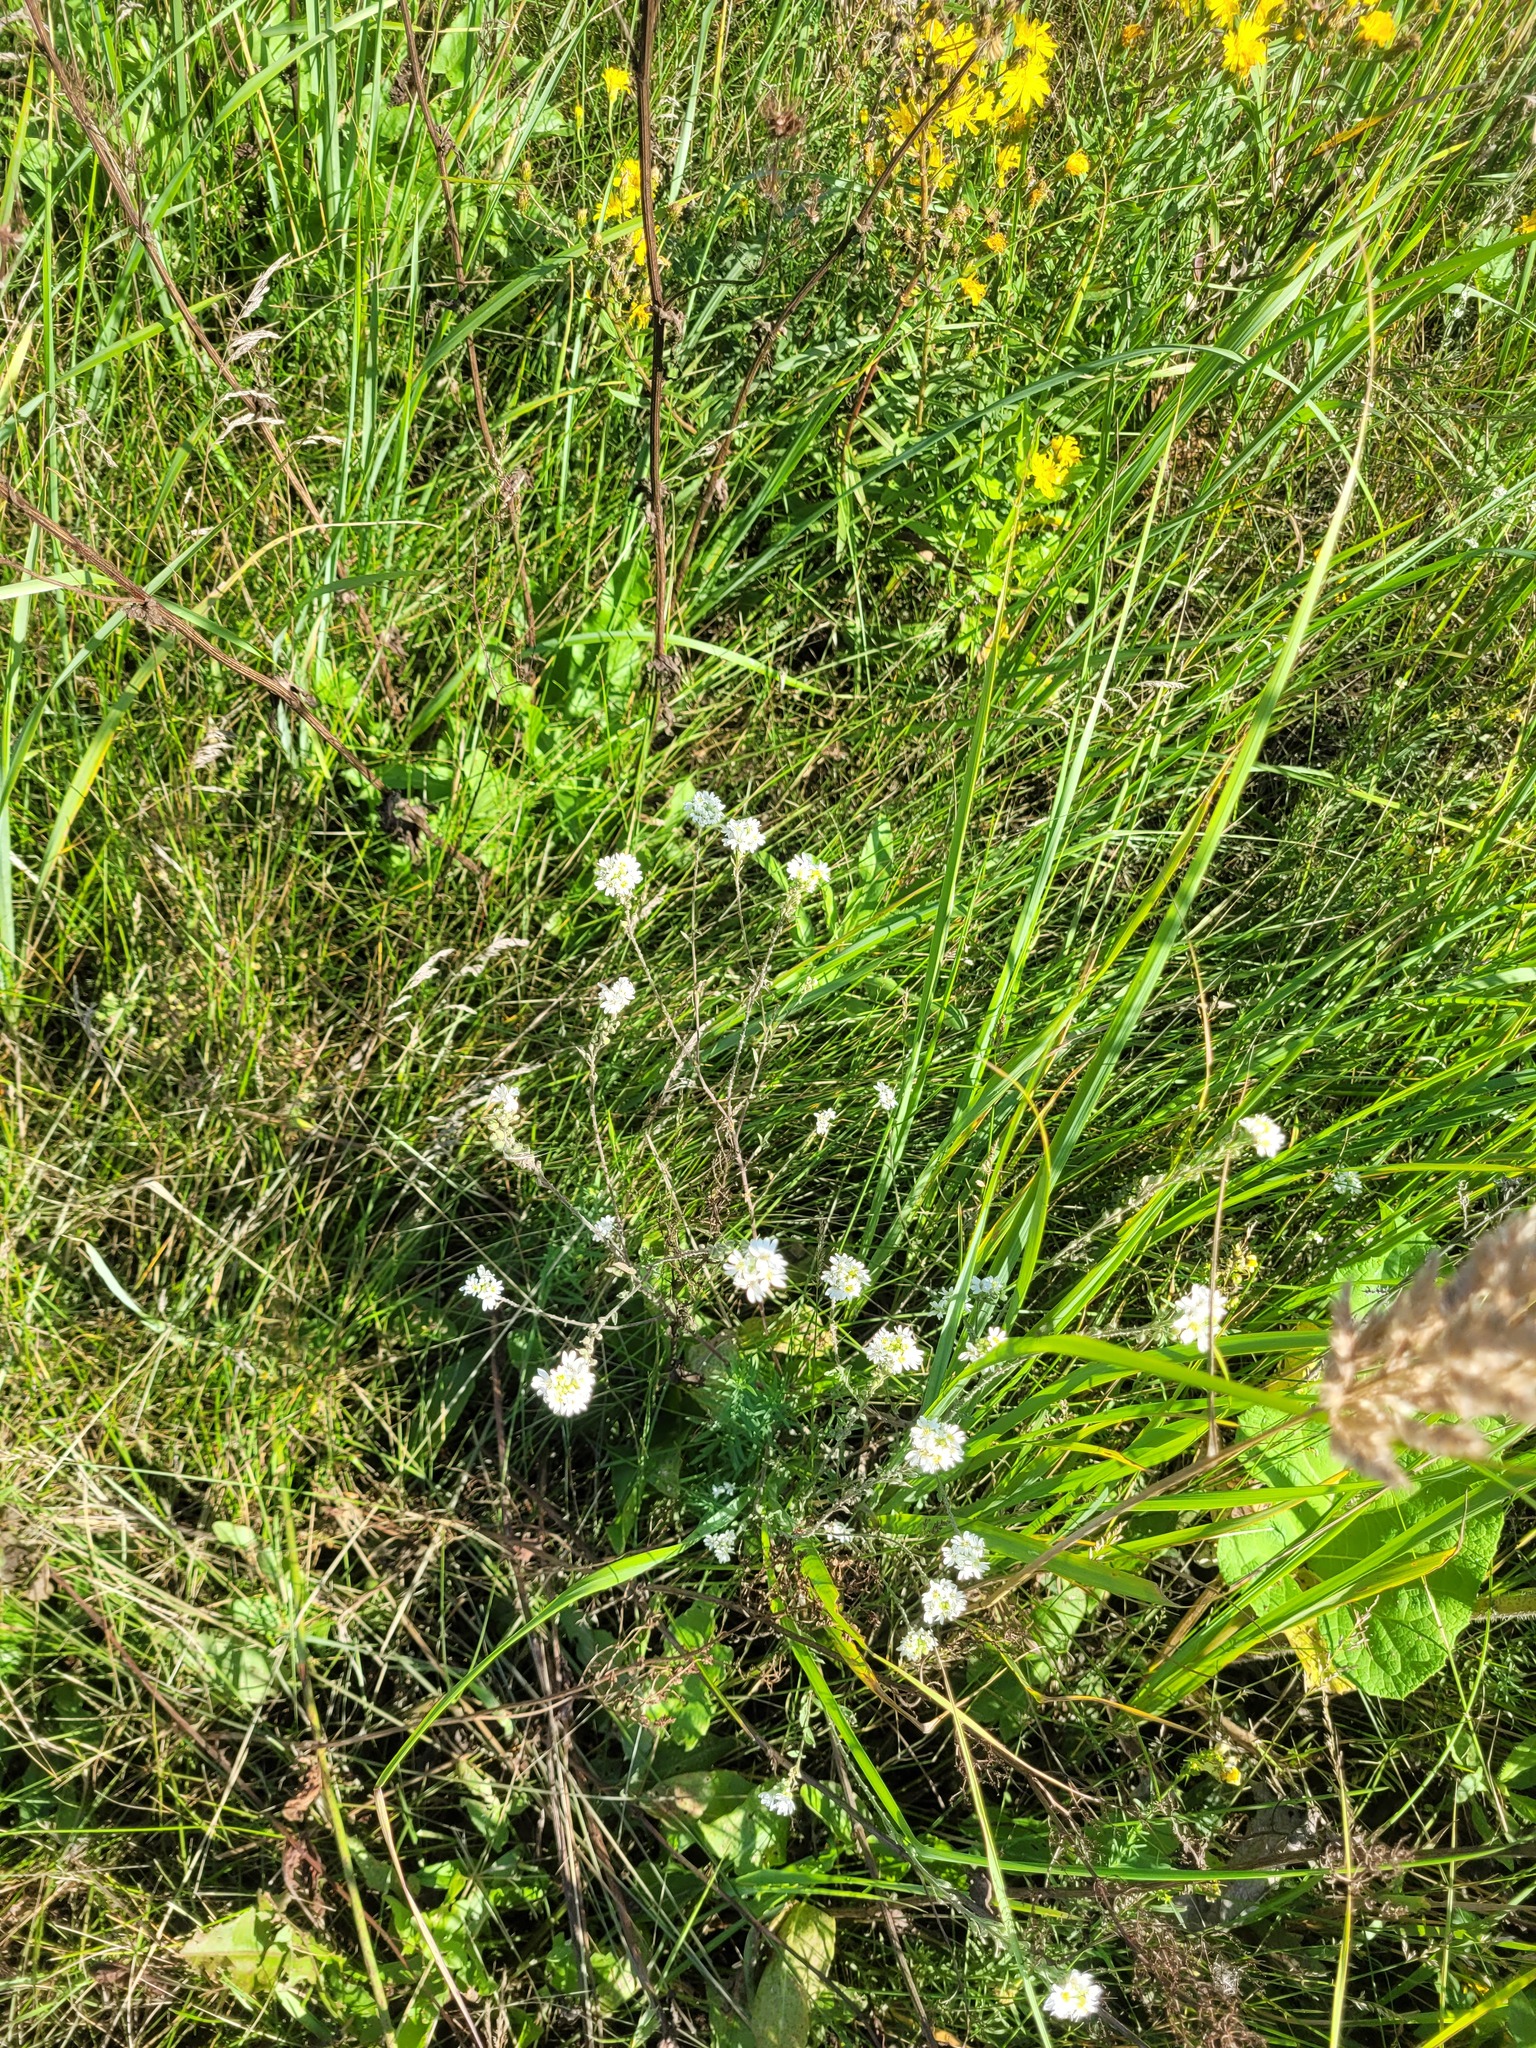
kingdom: Plantae
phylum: Tracheophyta
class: Magnoliopsida
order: Brassicales
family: Brassicaceae
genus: Berteroa
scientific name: Berteroa incana
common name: Hoary alison
